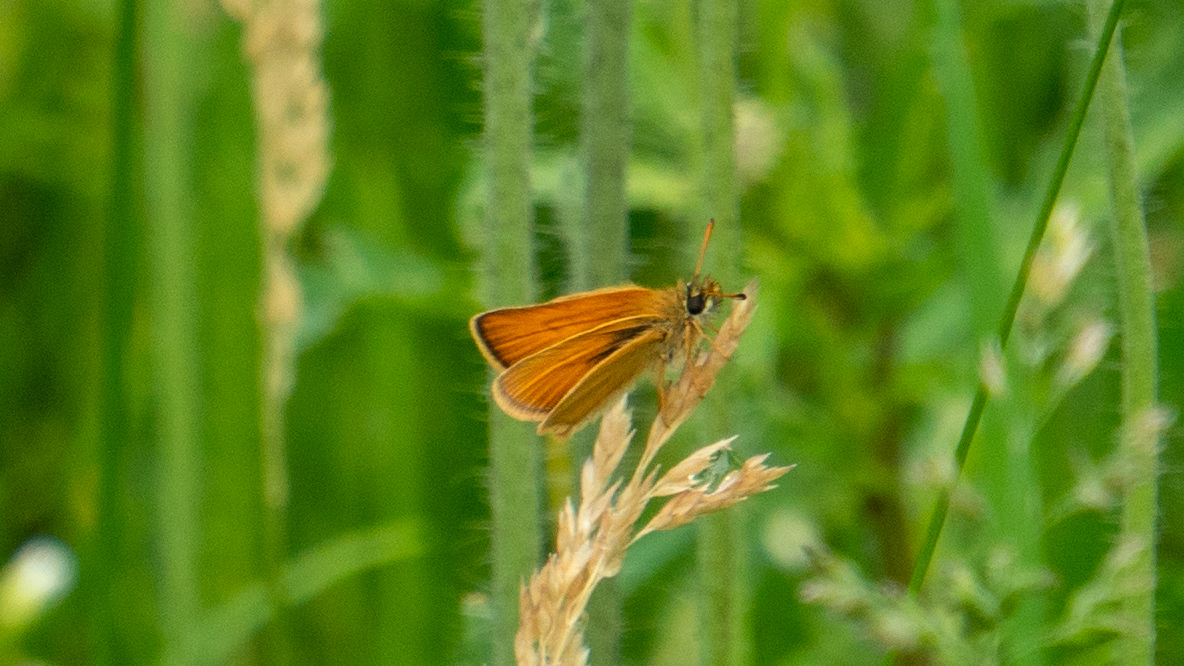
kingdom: Animalia
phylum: Arthropoda
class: Insecta
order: Lepidoptera
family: Hesperiidae
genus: Thymelicus
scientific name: Thymelicus lineola
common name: Essex skipper
